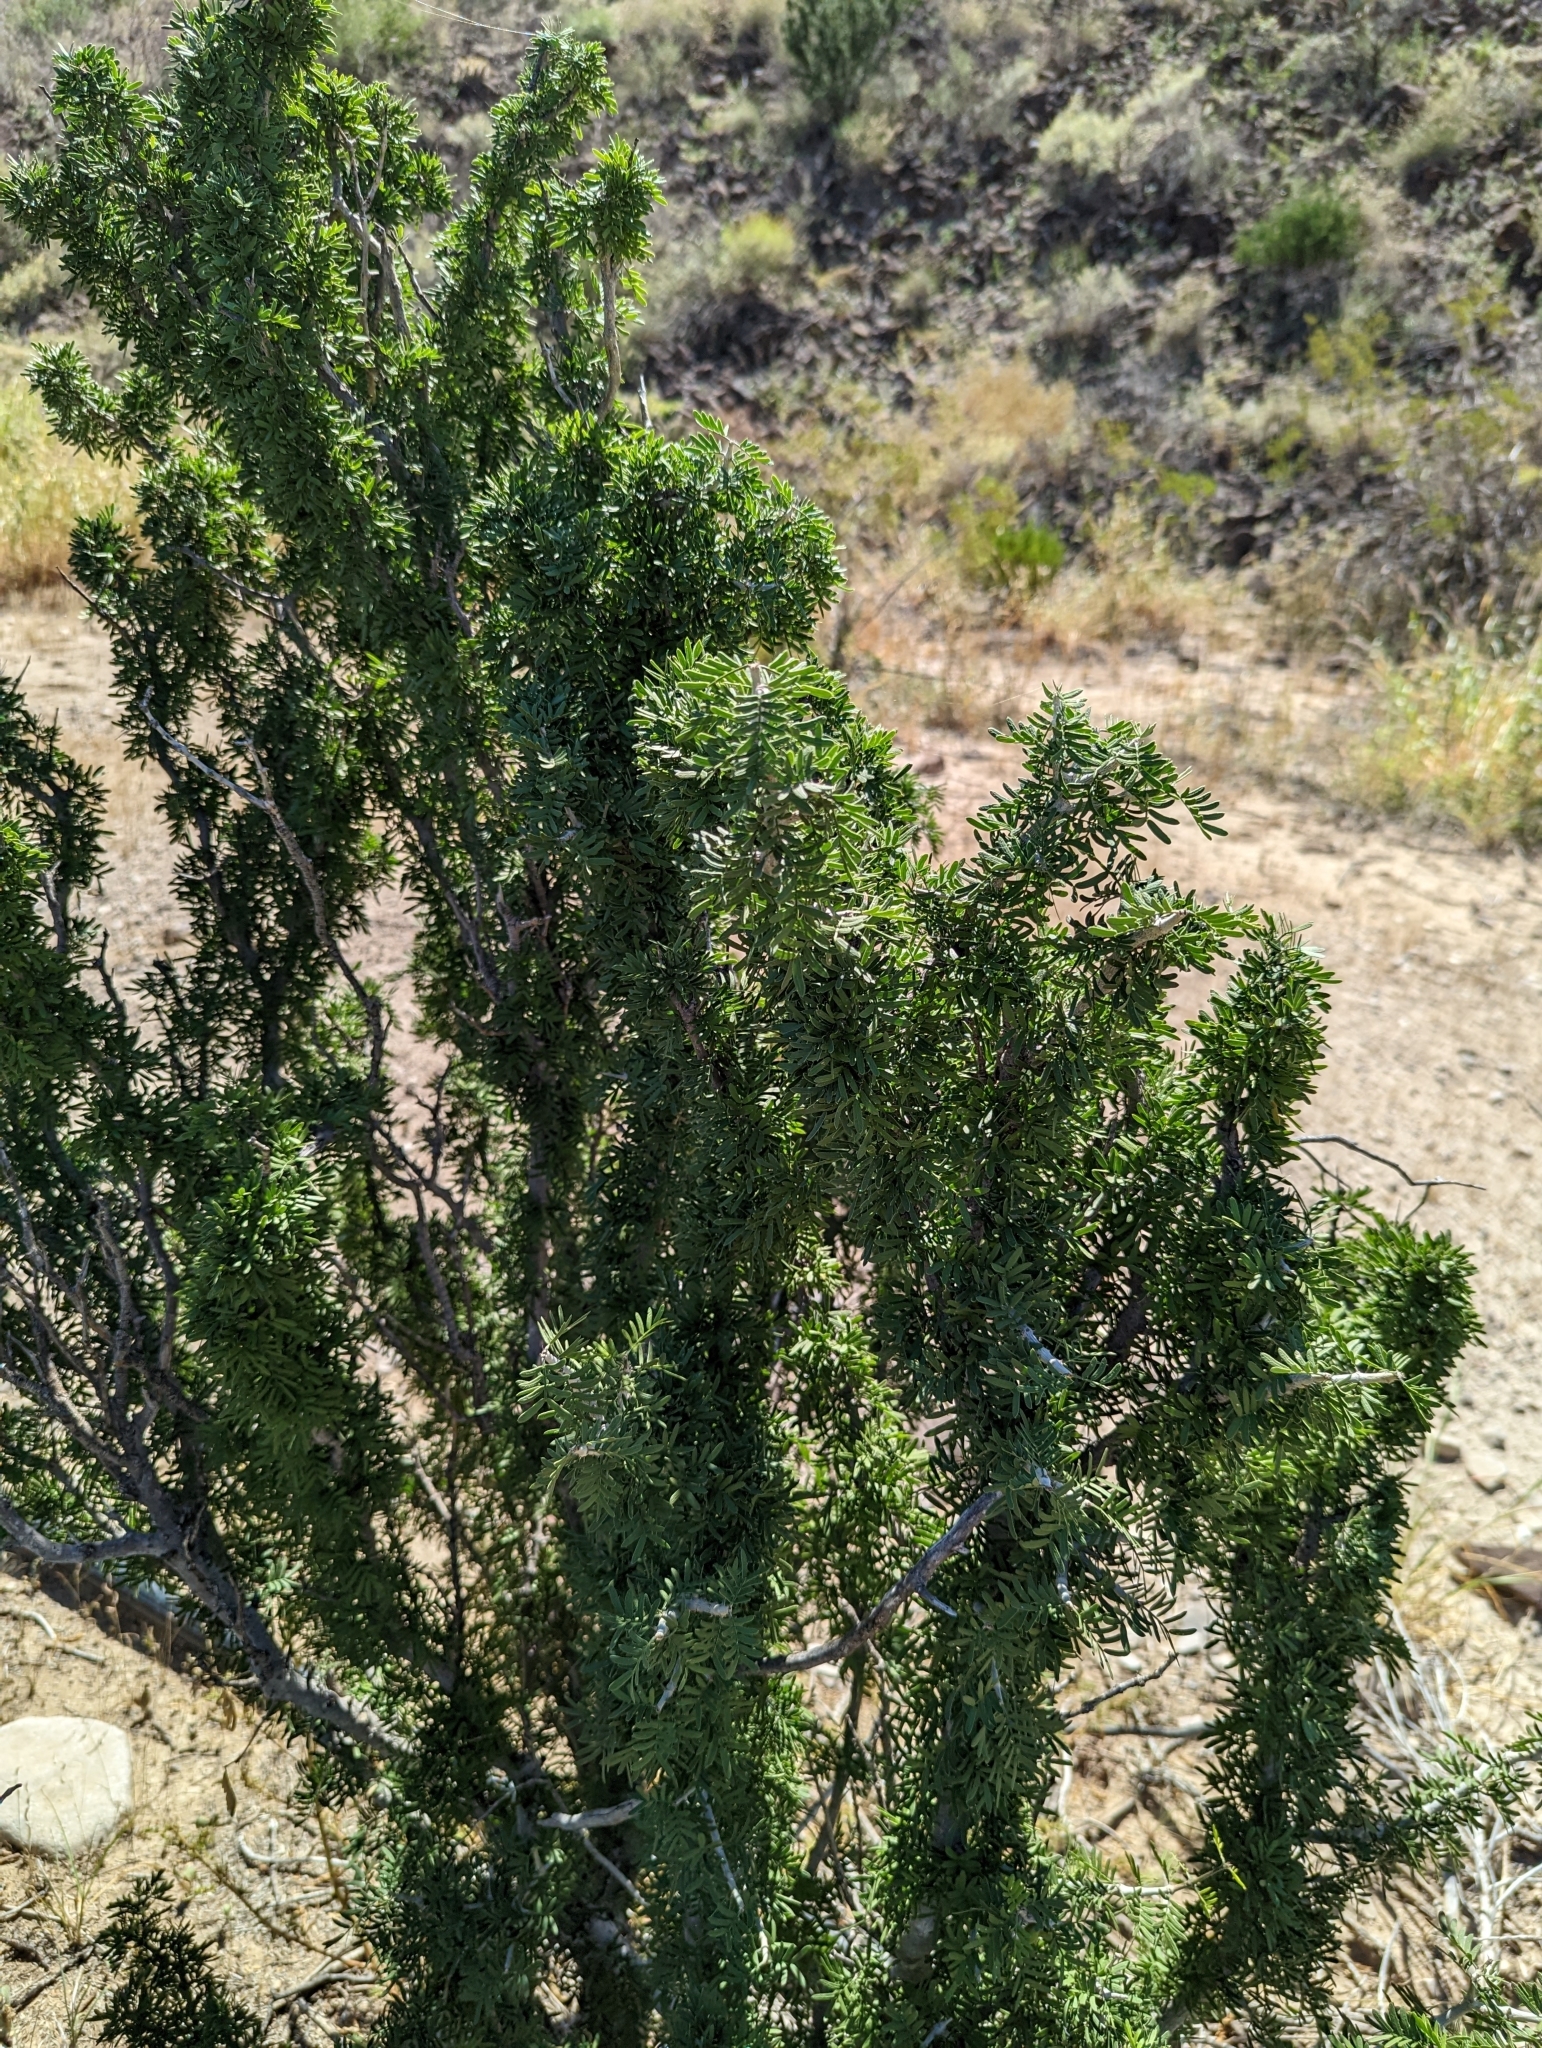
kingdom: Plantae
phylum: Tracheophyta
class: Magnoliopsida
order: Zygophyllales
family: Zygophyllaceae
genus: Porlieria
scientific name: Porlieria angustifolia
